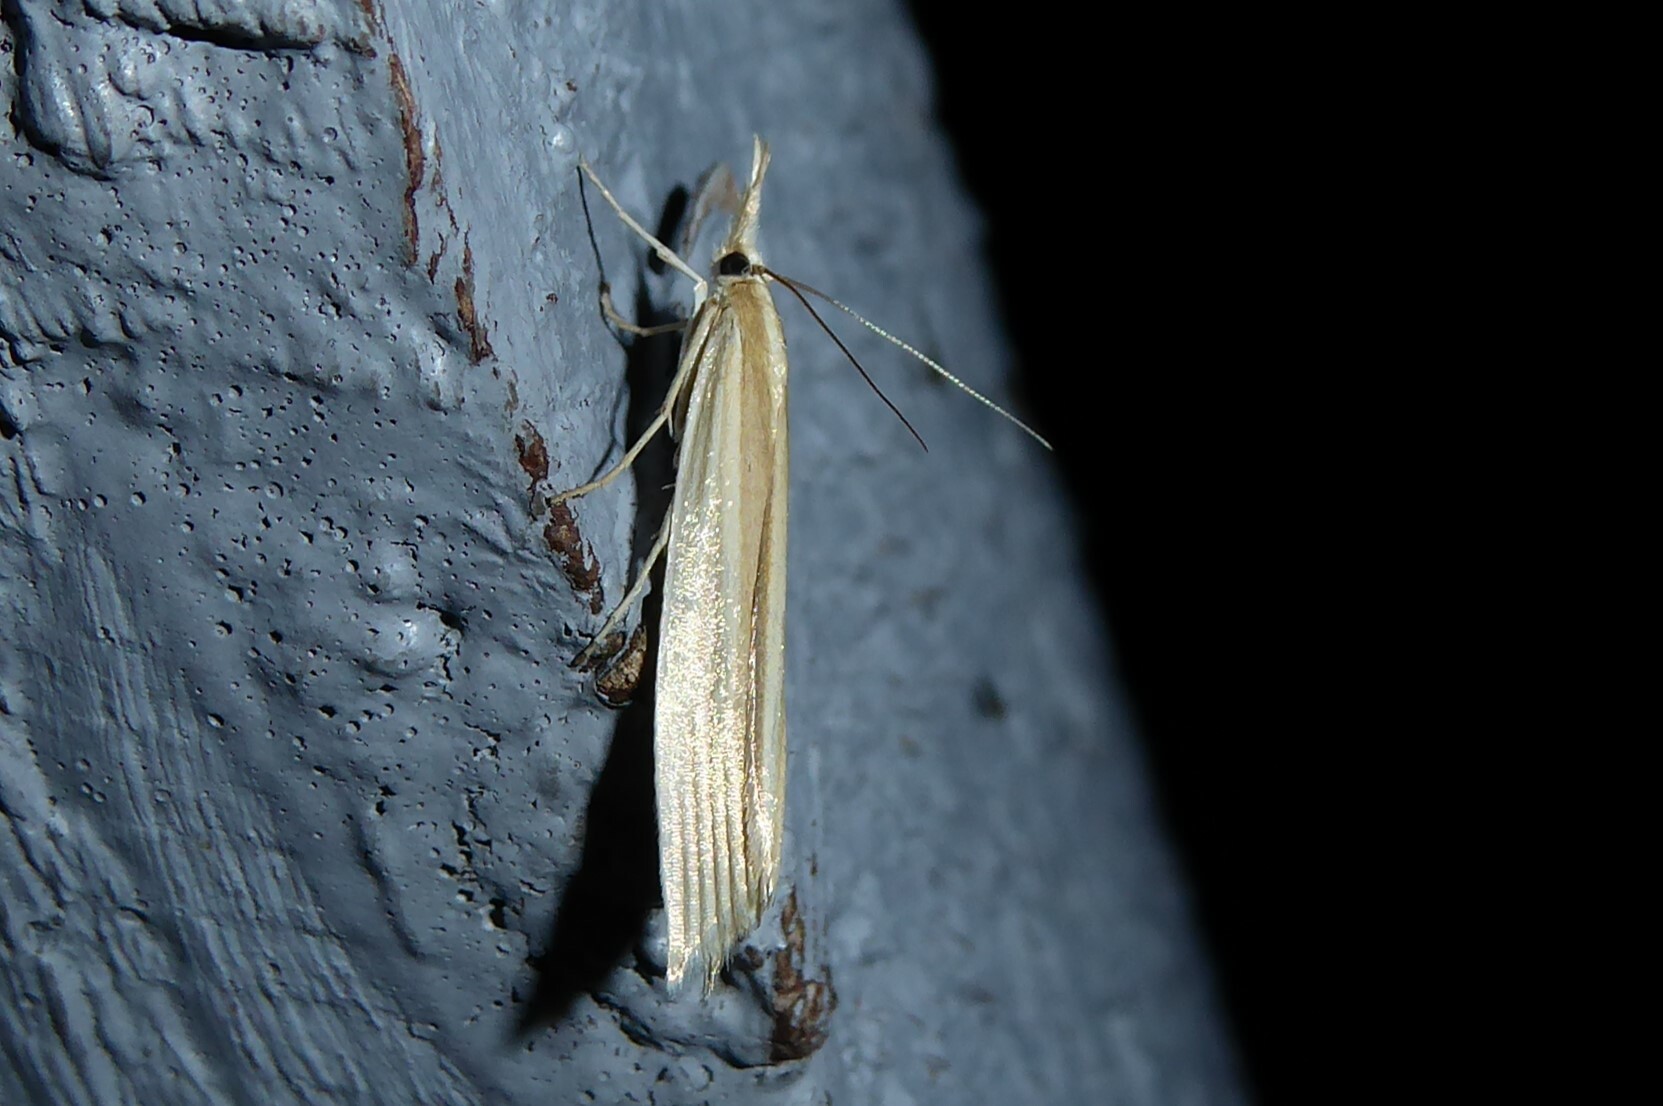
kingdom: Animalia
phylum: Arthropoda
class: Insecta
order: Lepidoptera
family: Crambidae
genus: Orocrambus
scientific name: Orocrambus angustipennis
